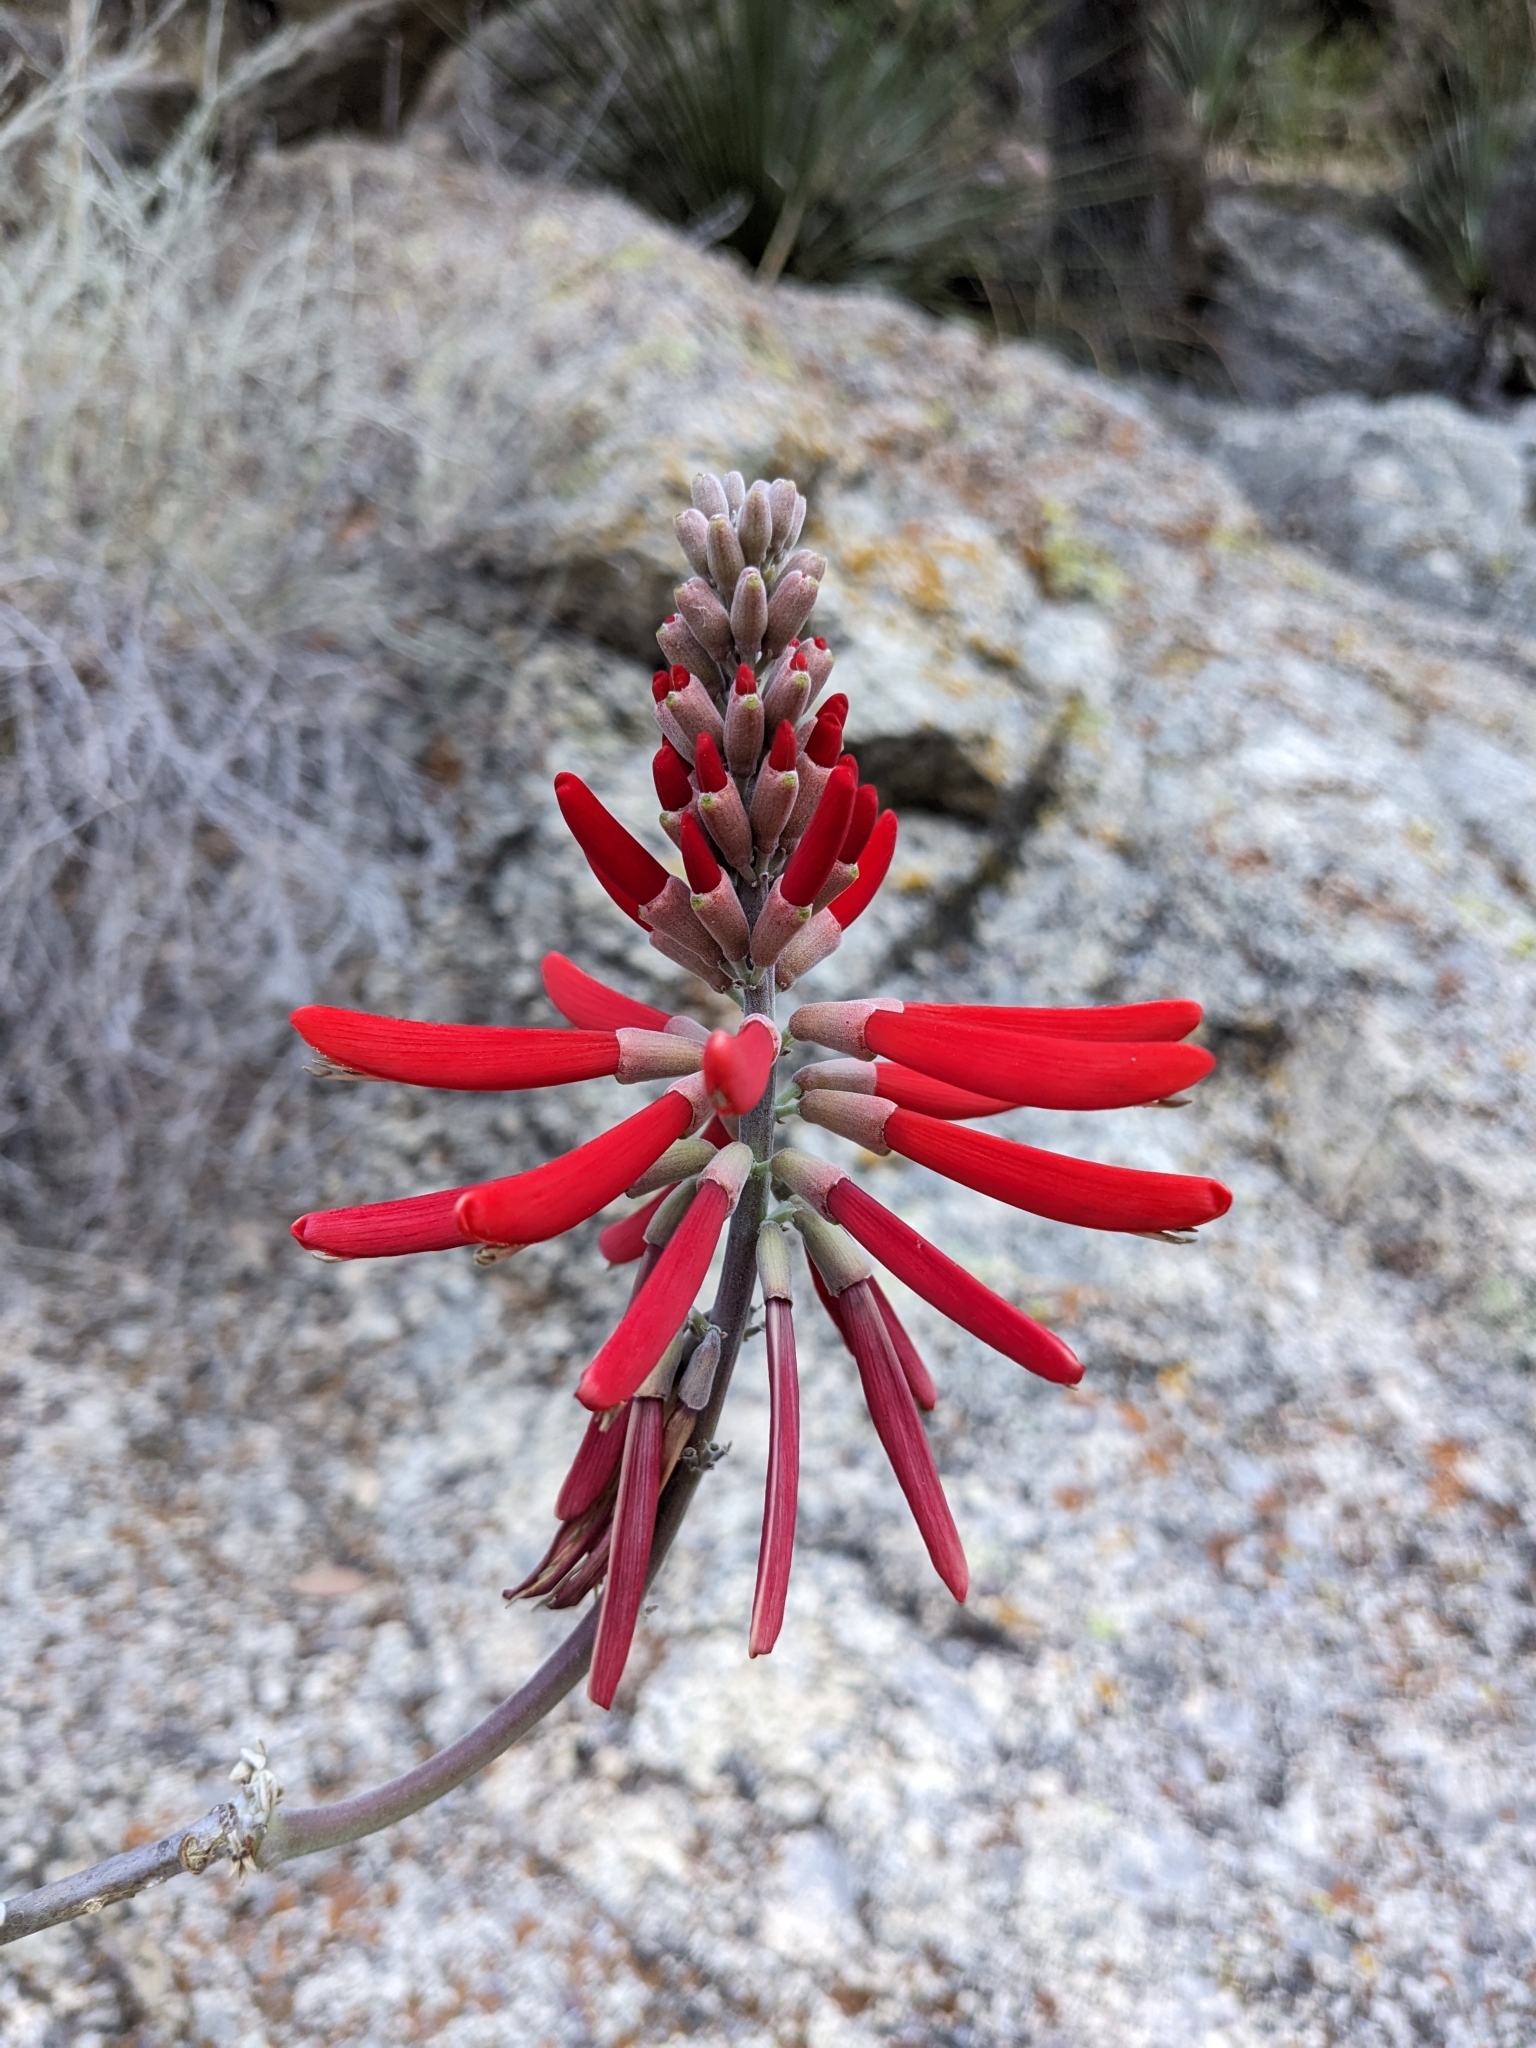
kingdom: Plantae
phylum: Tracheophyta
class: Magnoliopsida
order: Fabales
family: Fabaceae
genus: Erythrina
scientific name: Erythrina flabelliformis
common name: Chilicote
